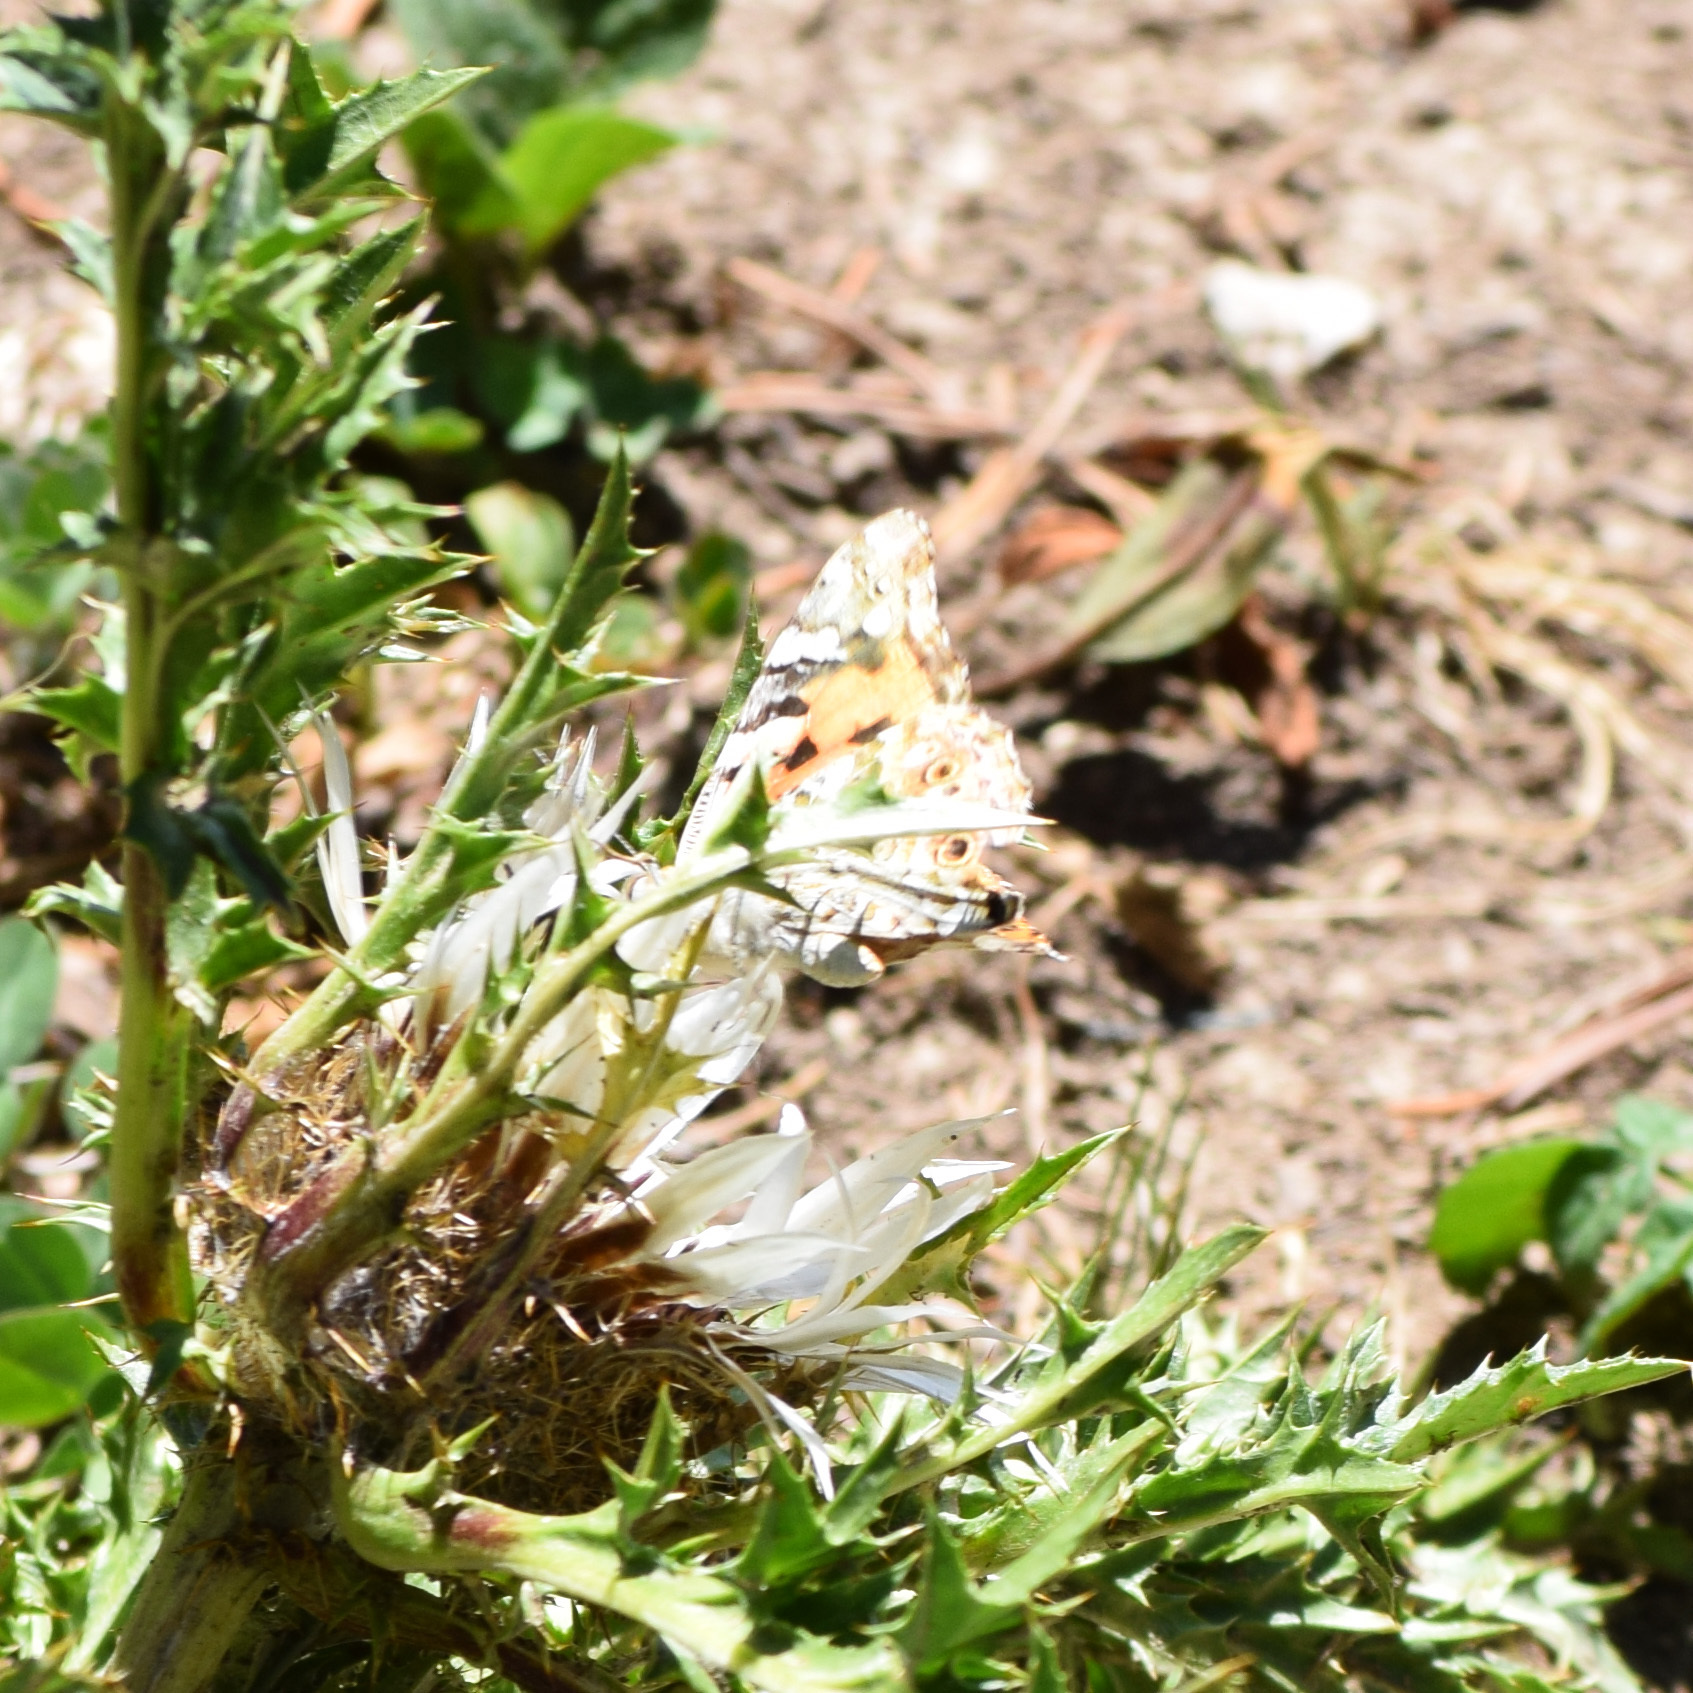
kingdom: Animalia
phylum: Arthropoda
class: Insecta
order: Lepidoptera
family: Nymphalidae
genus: Vanessa
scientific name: Vanessa cardui
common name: Painted lady
